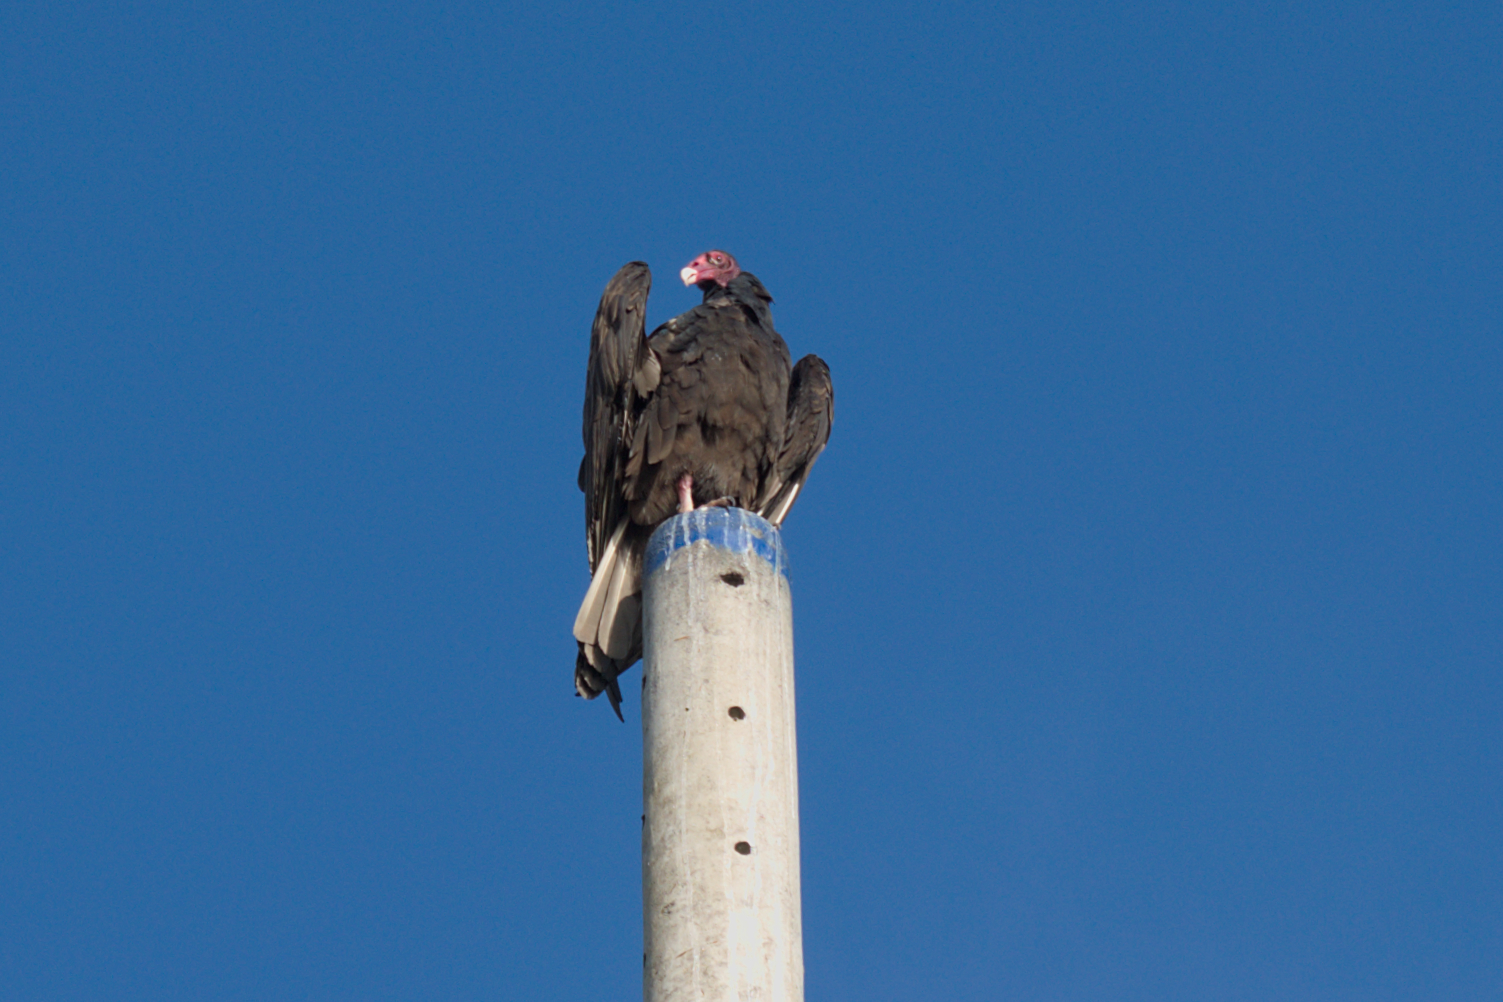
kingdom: Animalia
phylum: Chordata
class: Aves
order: Accipitriformes
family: Cathartidae
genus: Cathartes
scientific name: Cathartes aura
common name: Turkey vulture
